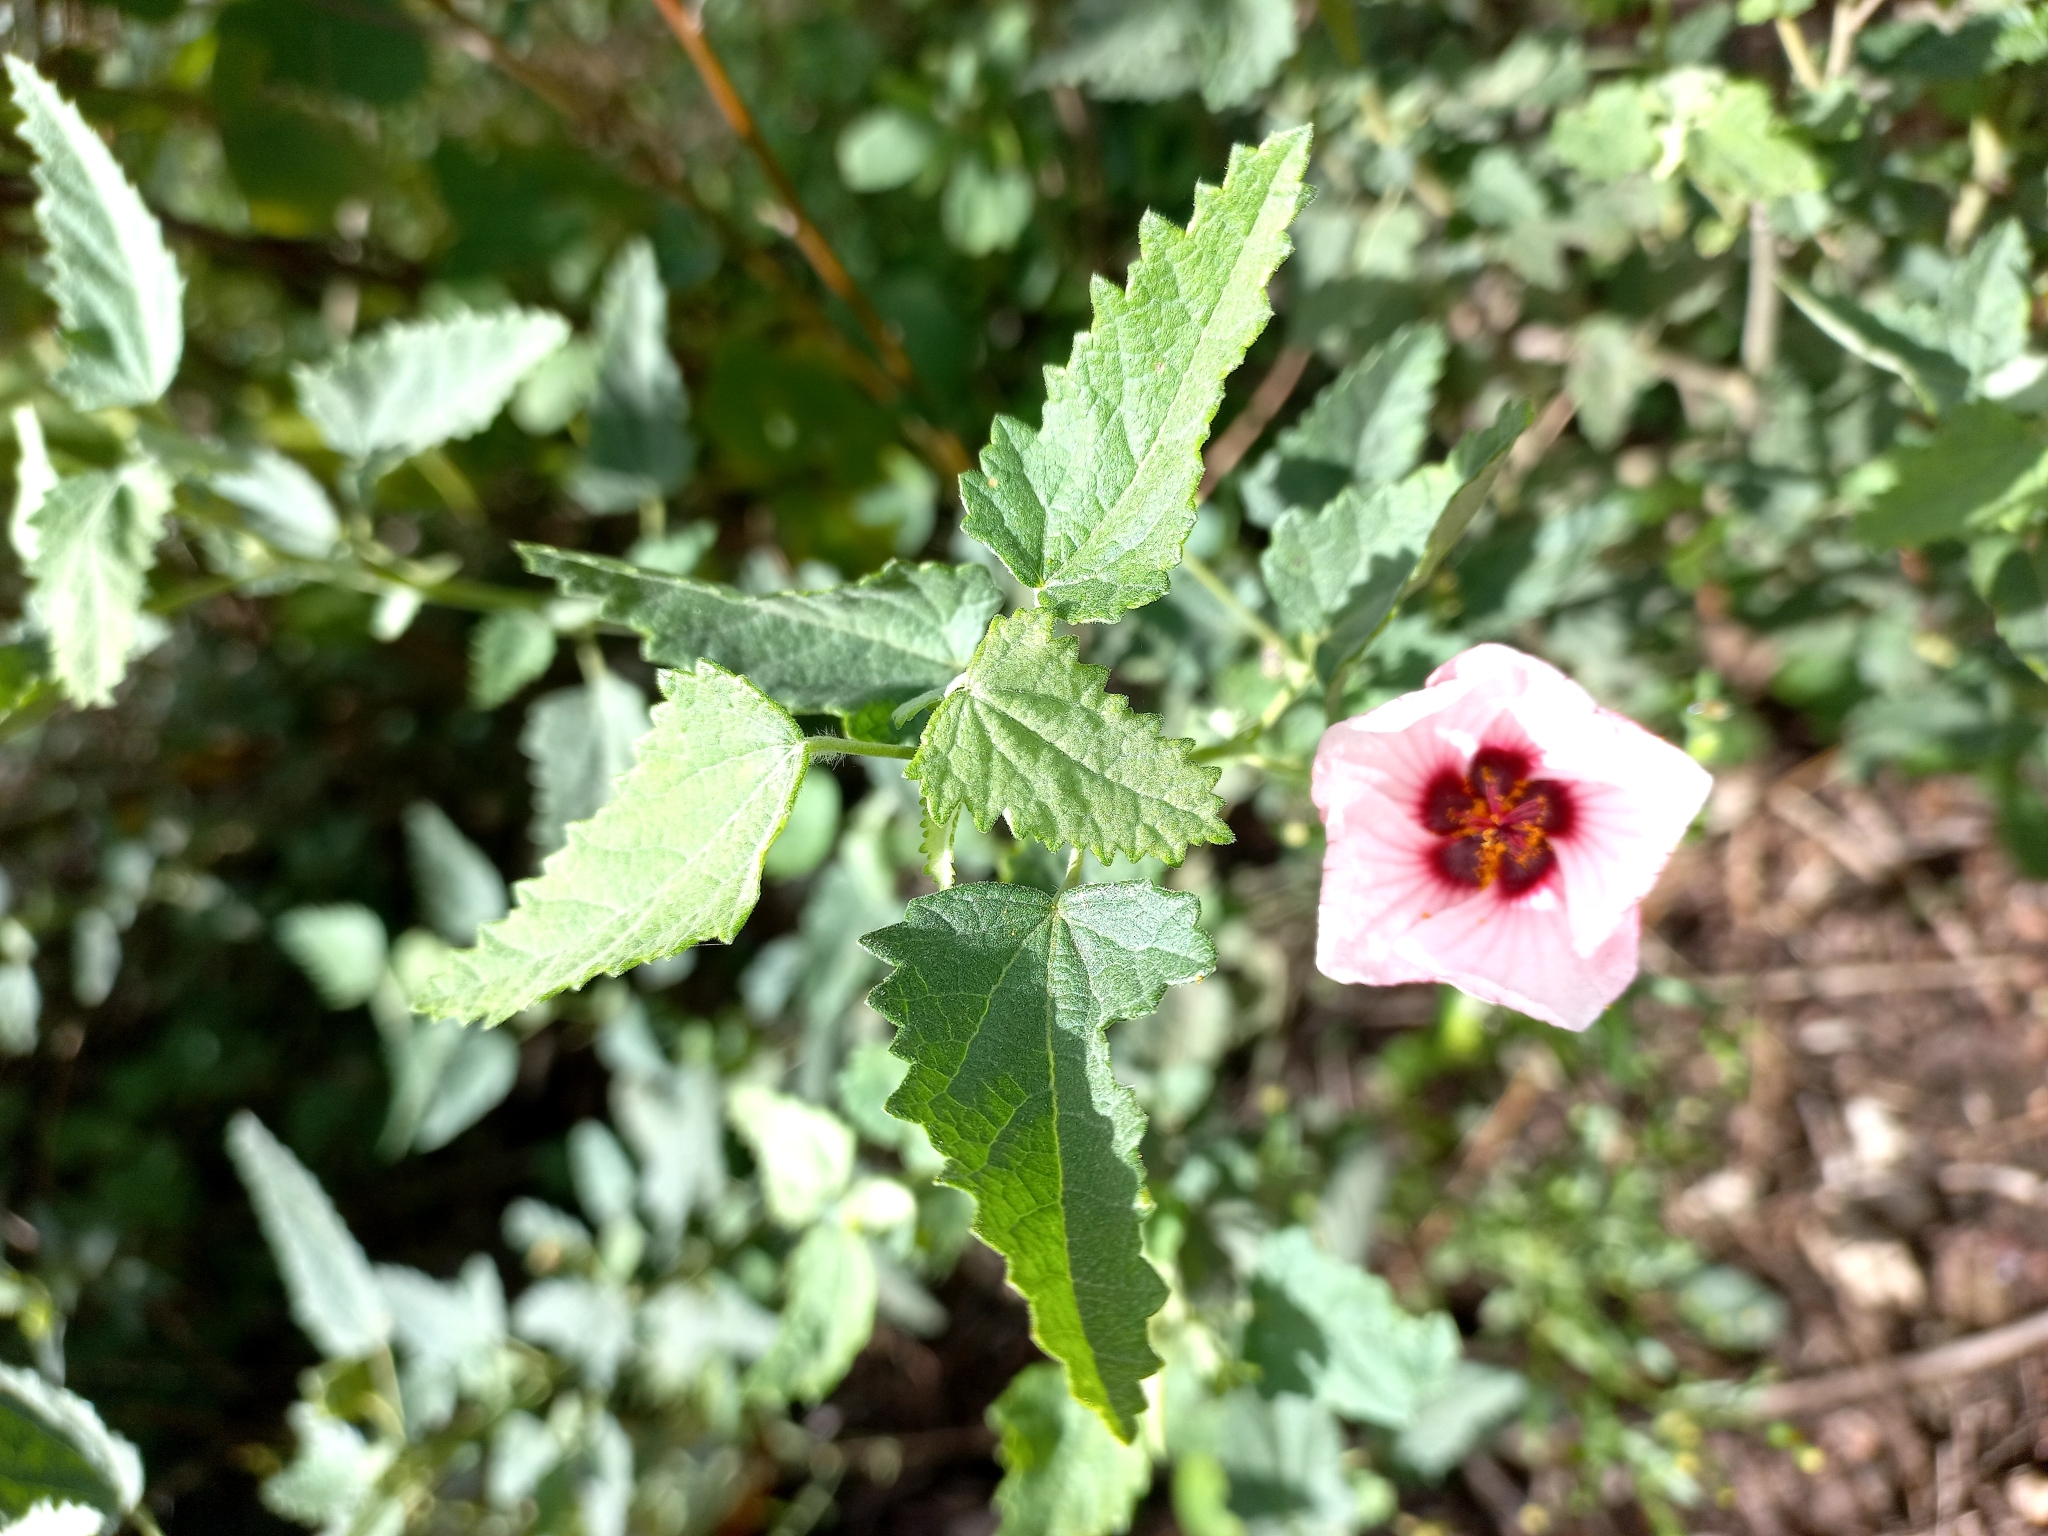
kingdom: Plantae
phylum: Tracheophyta
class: Magnoliopsida
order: Malvales
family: Malvaceae
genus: Pavonia
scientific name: Pavonia xanthogloea
